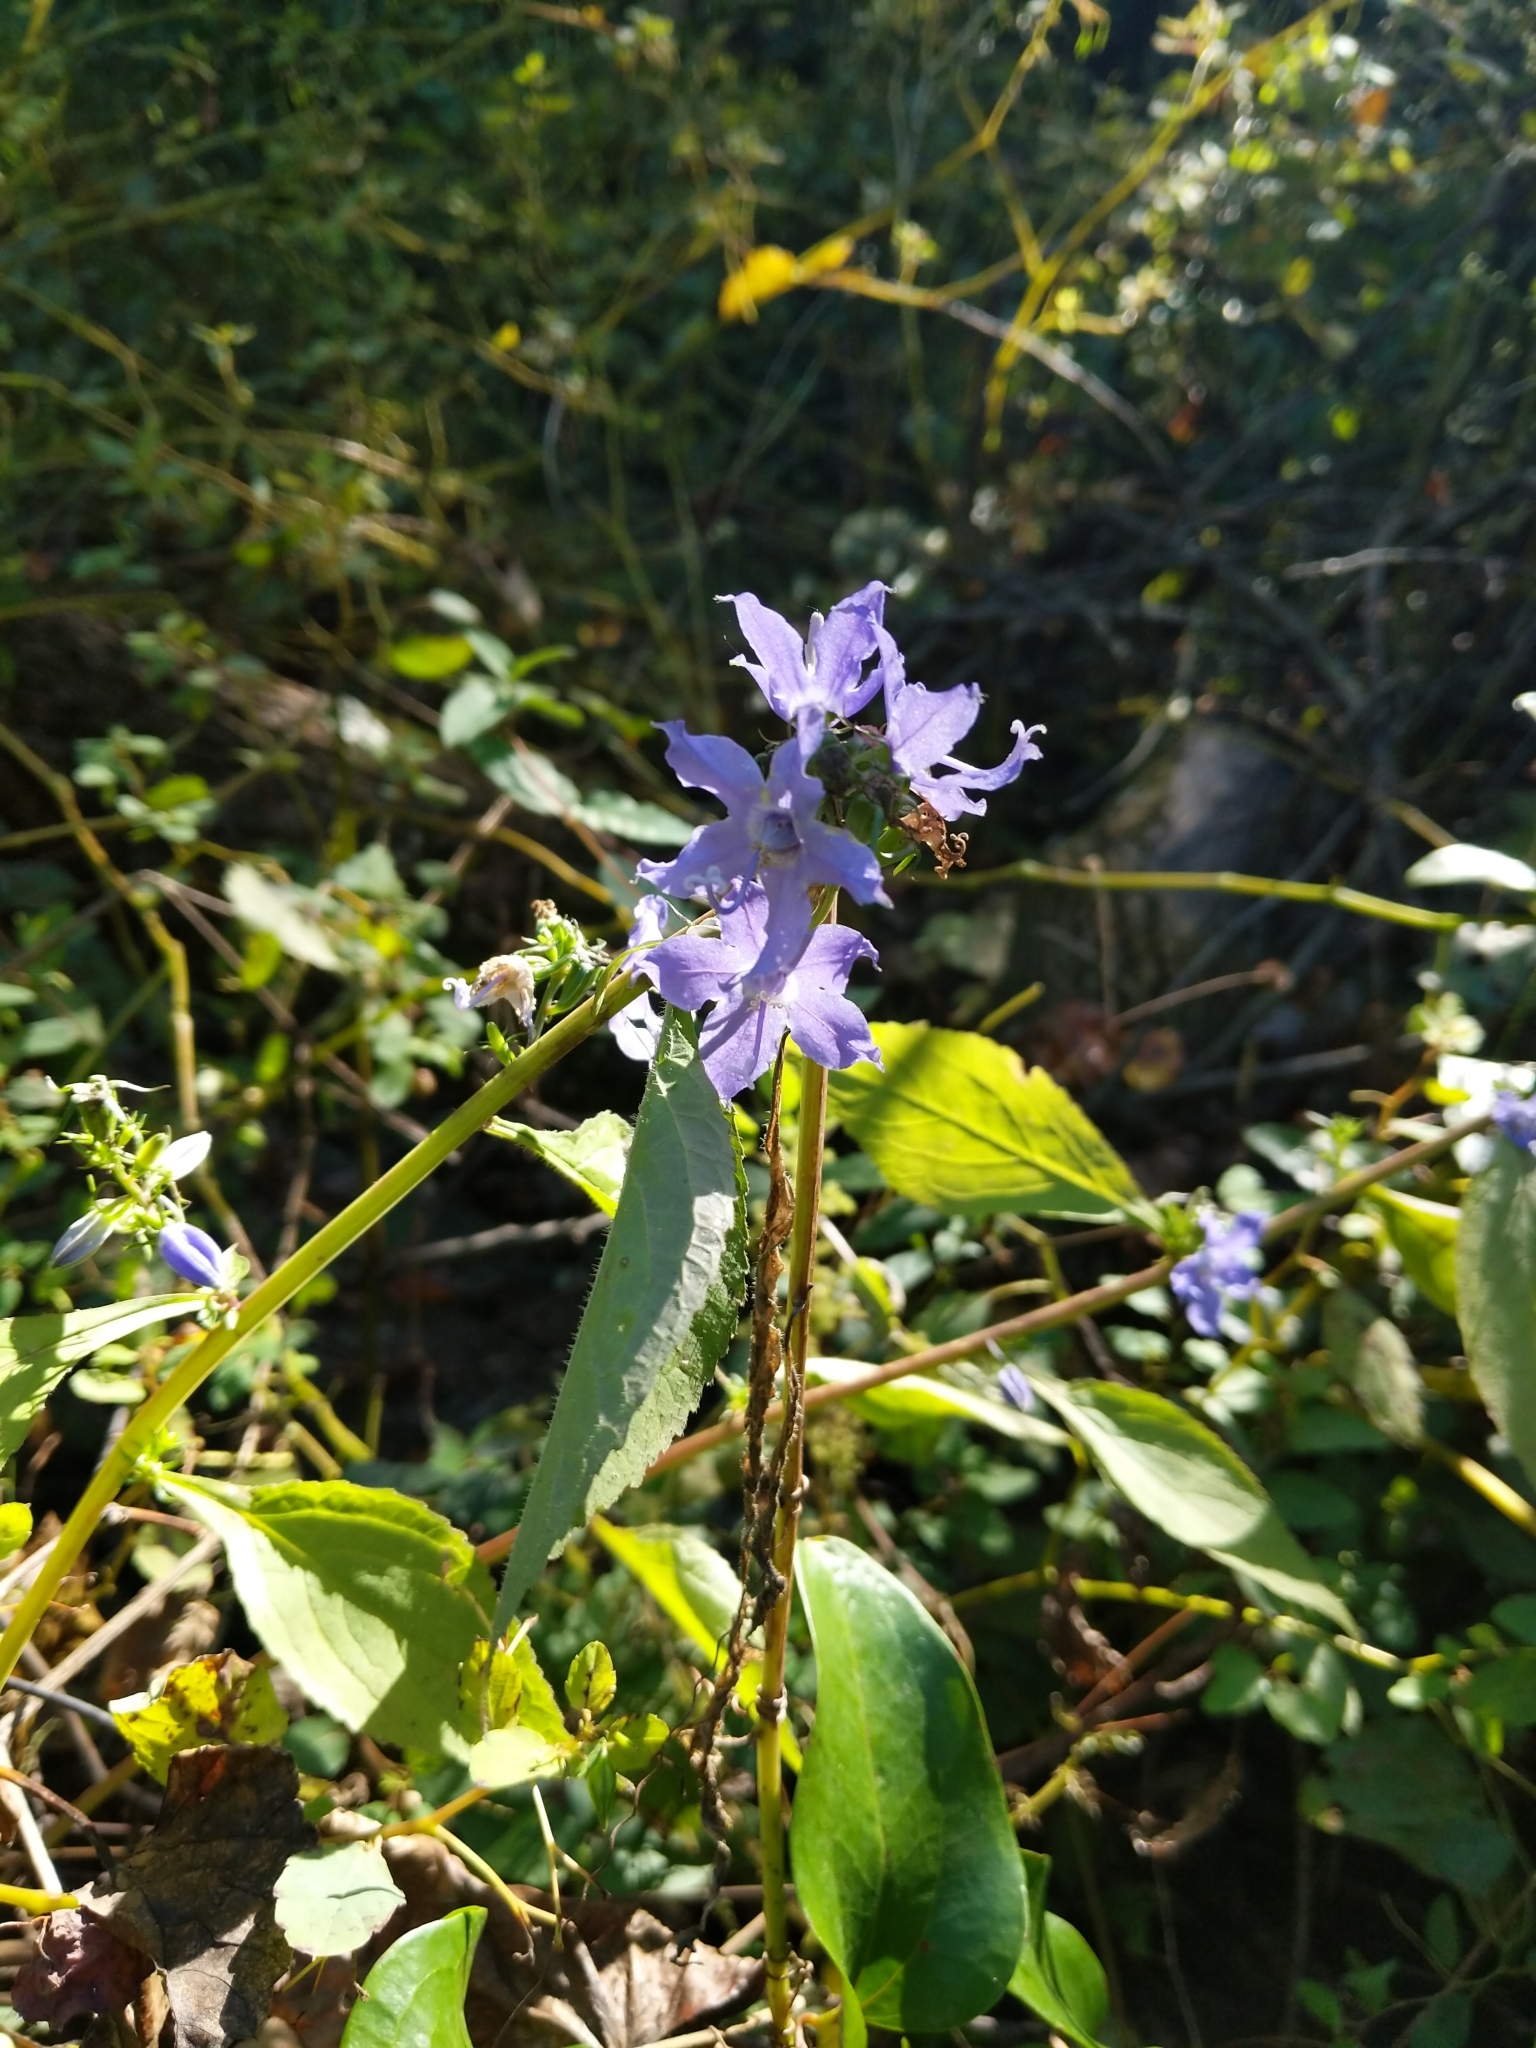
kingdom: Plantae
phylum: Tracheophyta
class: Magnoliopsida
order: Asterales
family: Campanulaceae
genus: Campanulastrum
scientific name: Campanulastrum americanum
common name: American bellflower
